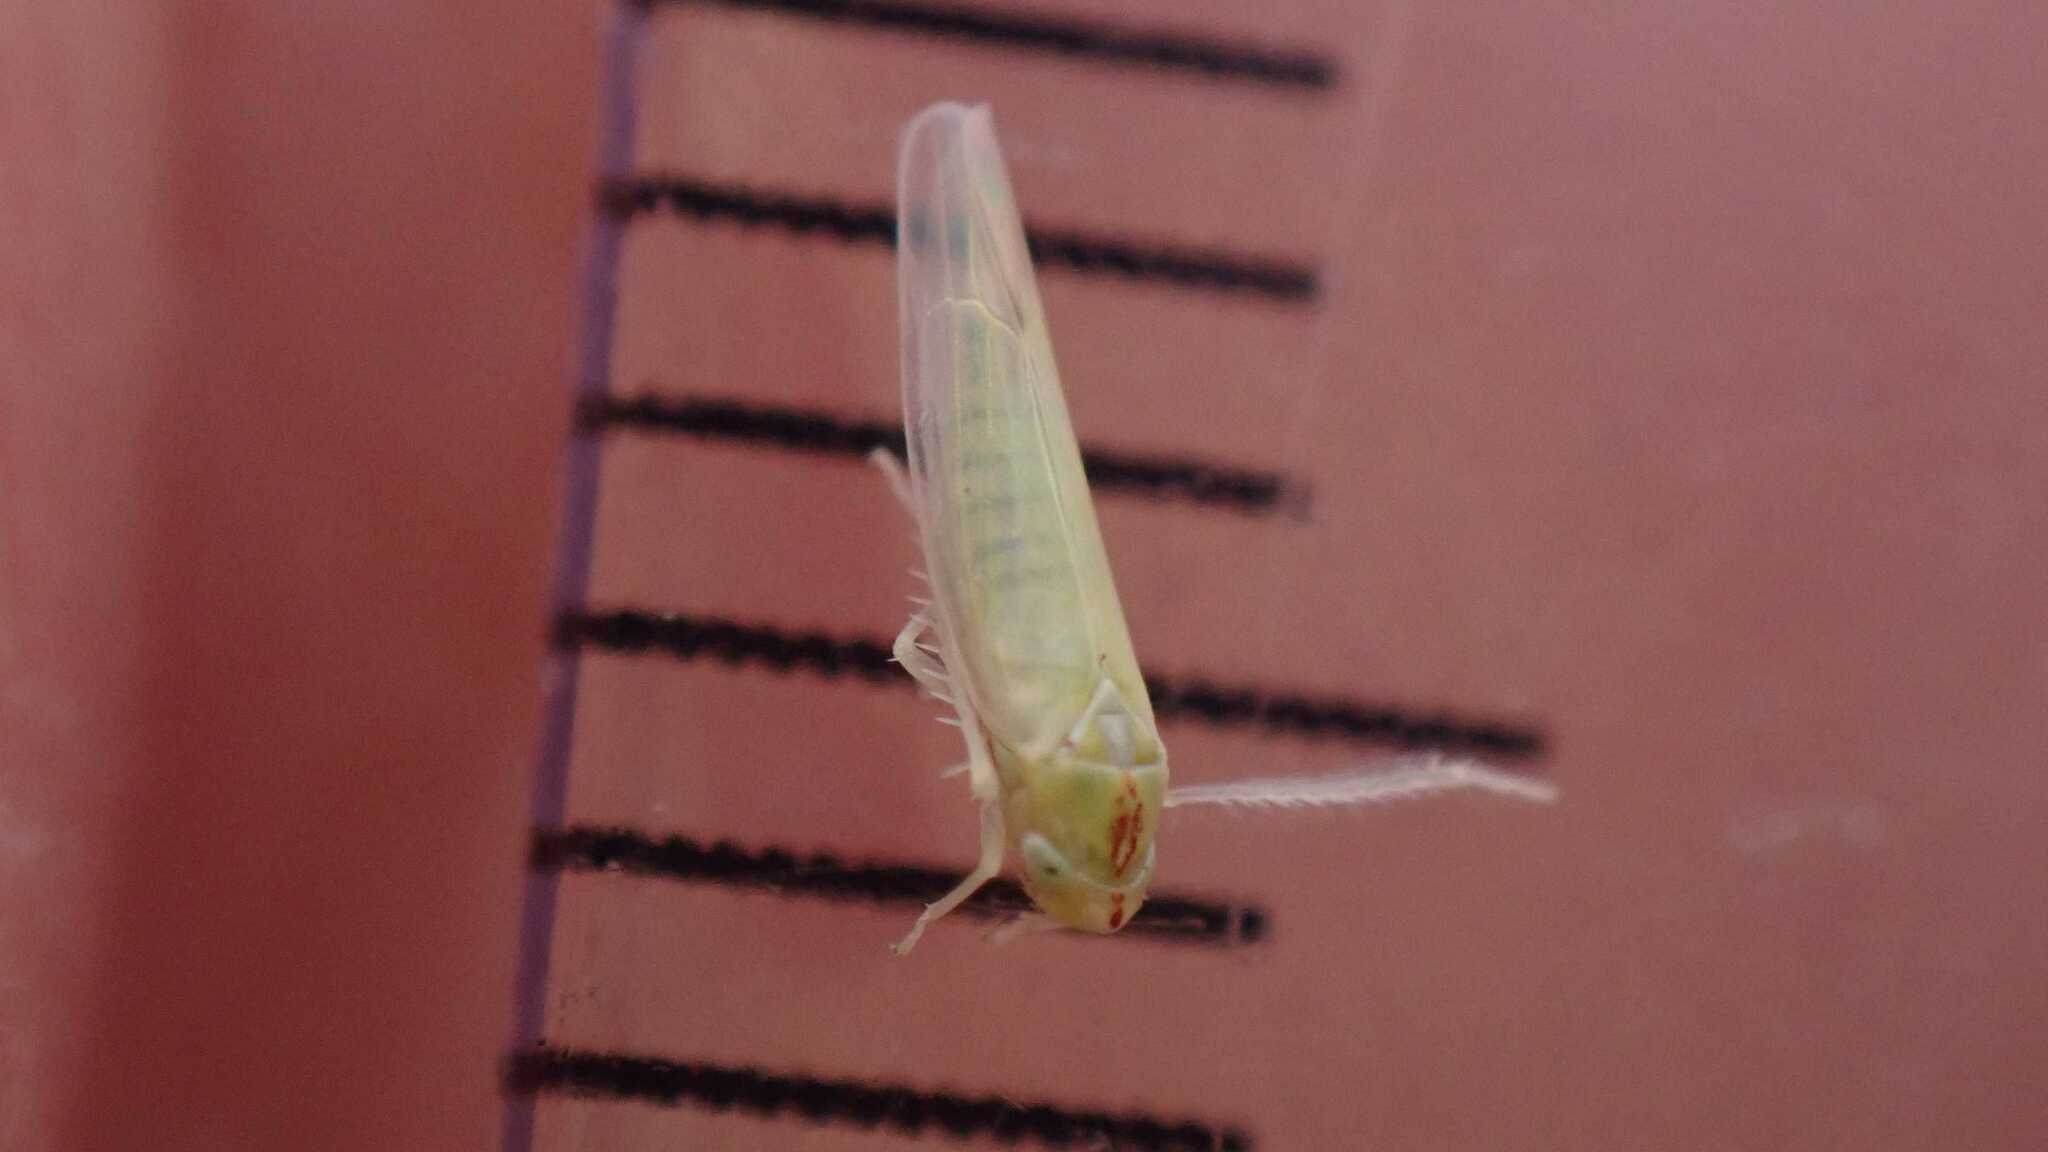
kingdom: Animalia
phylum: Arthropoda
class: Insecta
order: Hemiptera
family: Cicadellidae
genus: Zygina
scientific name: Zygina nivea
